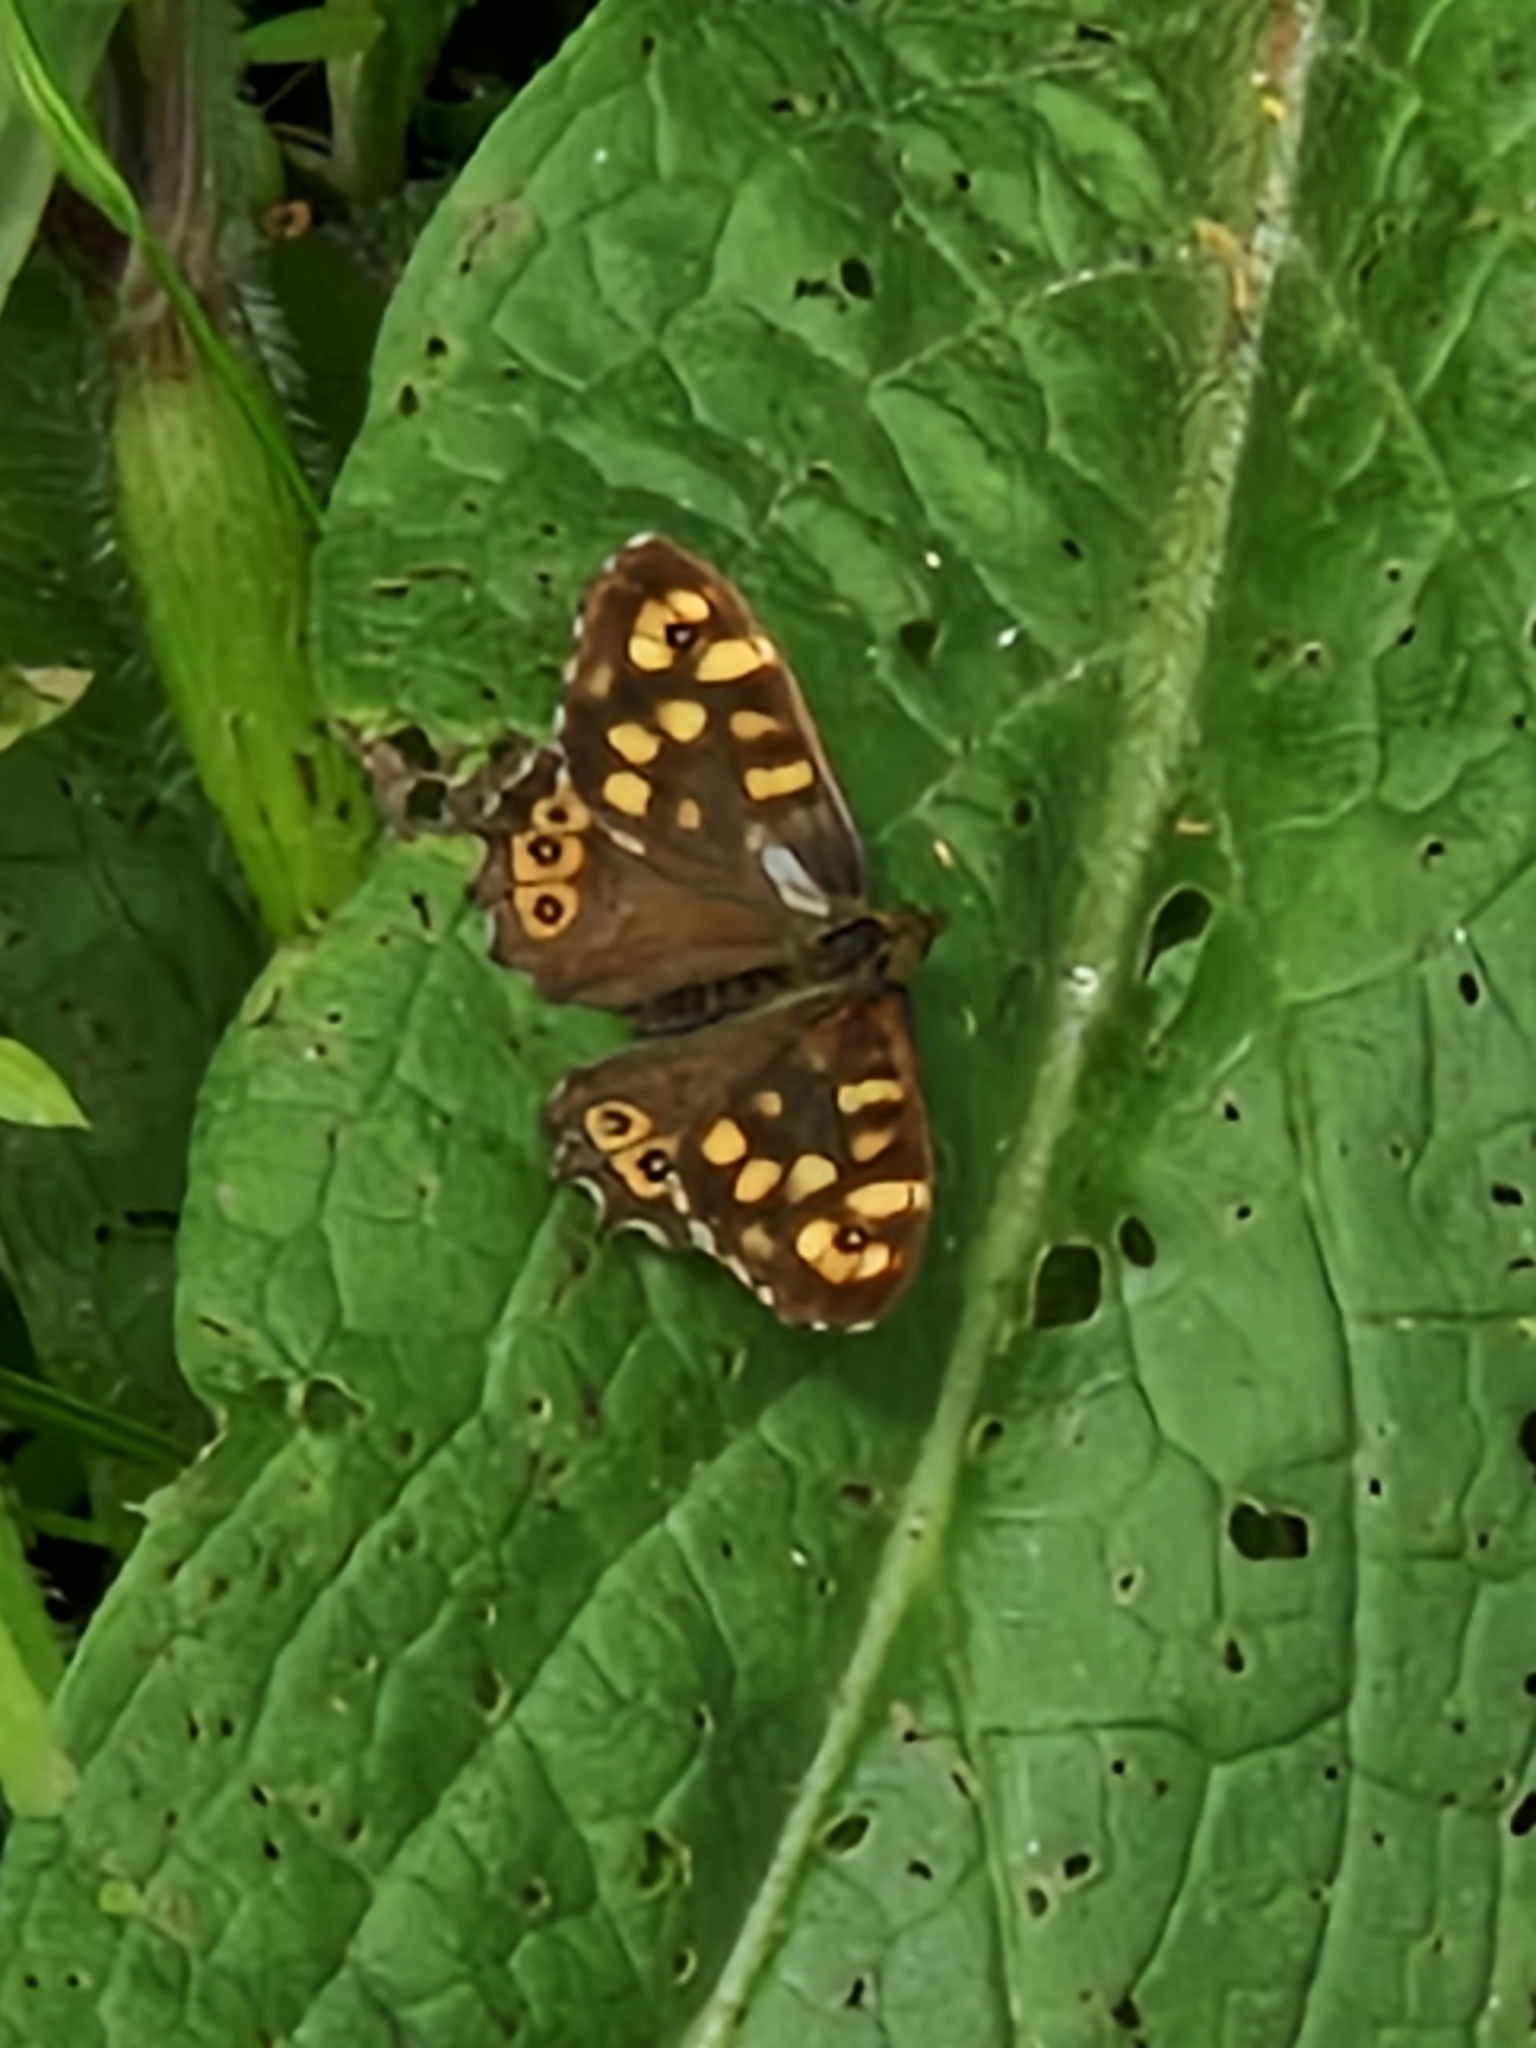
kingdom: Animalia
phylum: Arthropoda
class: Insecta
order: Lepidoptera
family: Nymphalidae
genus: Pararge
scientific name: Pararge aegeria
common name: Speckled wood
